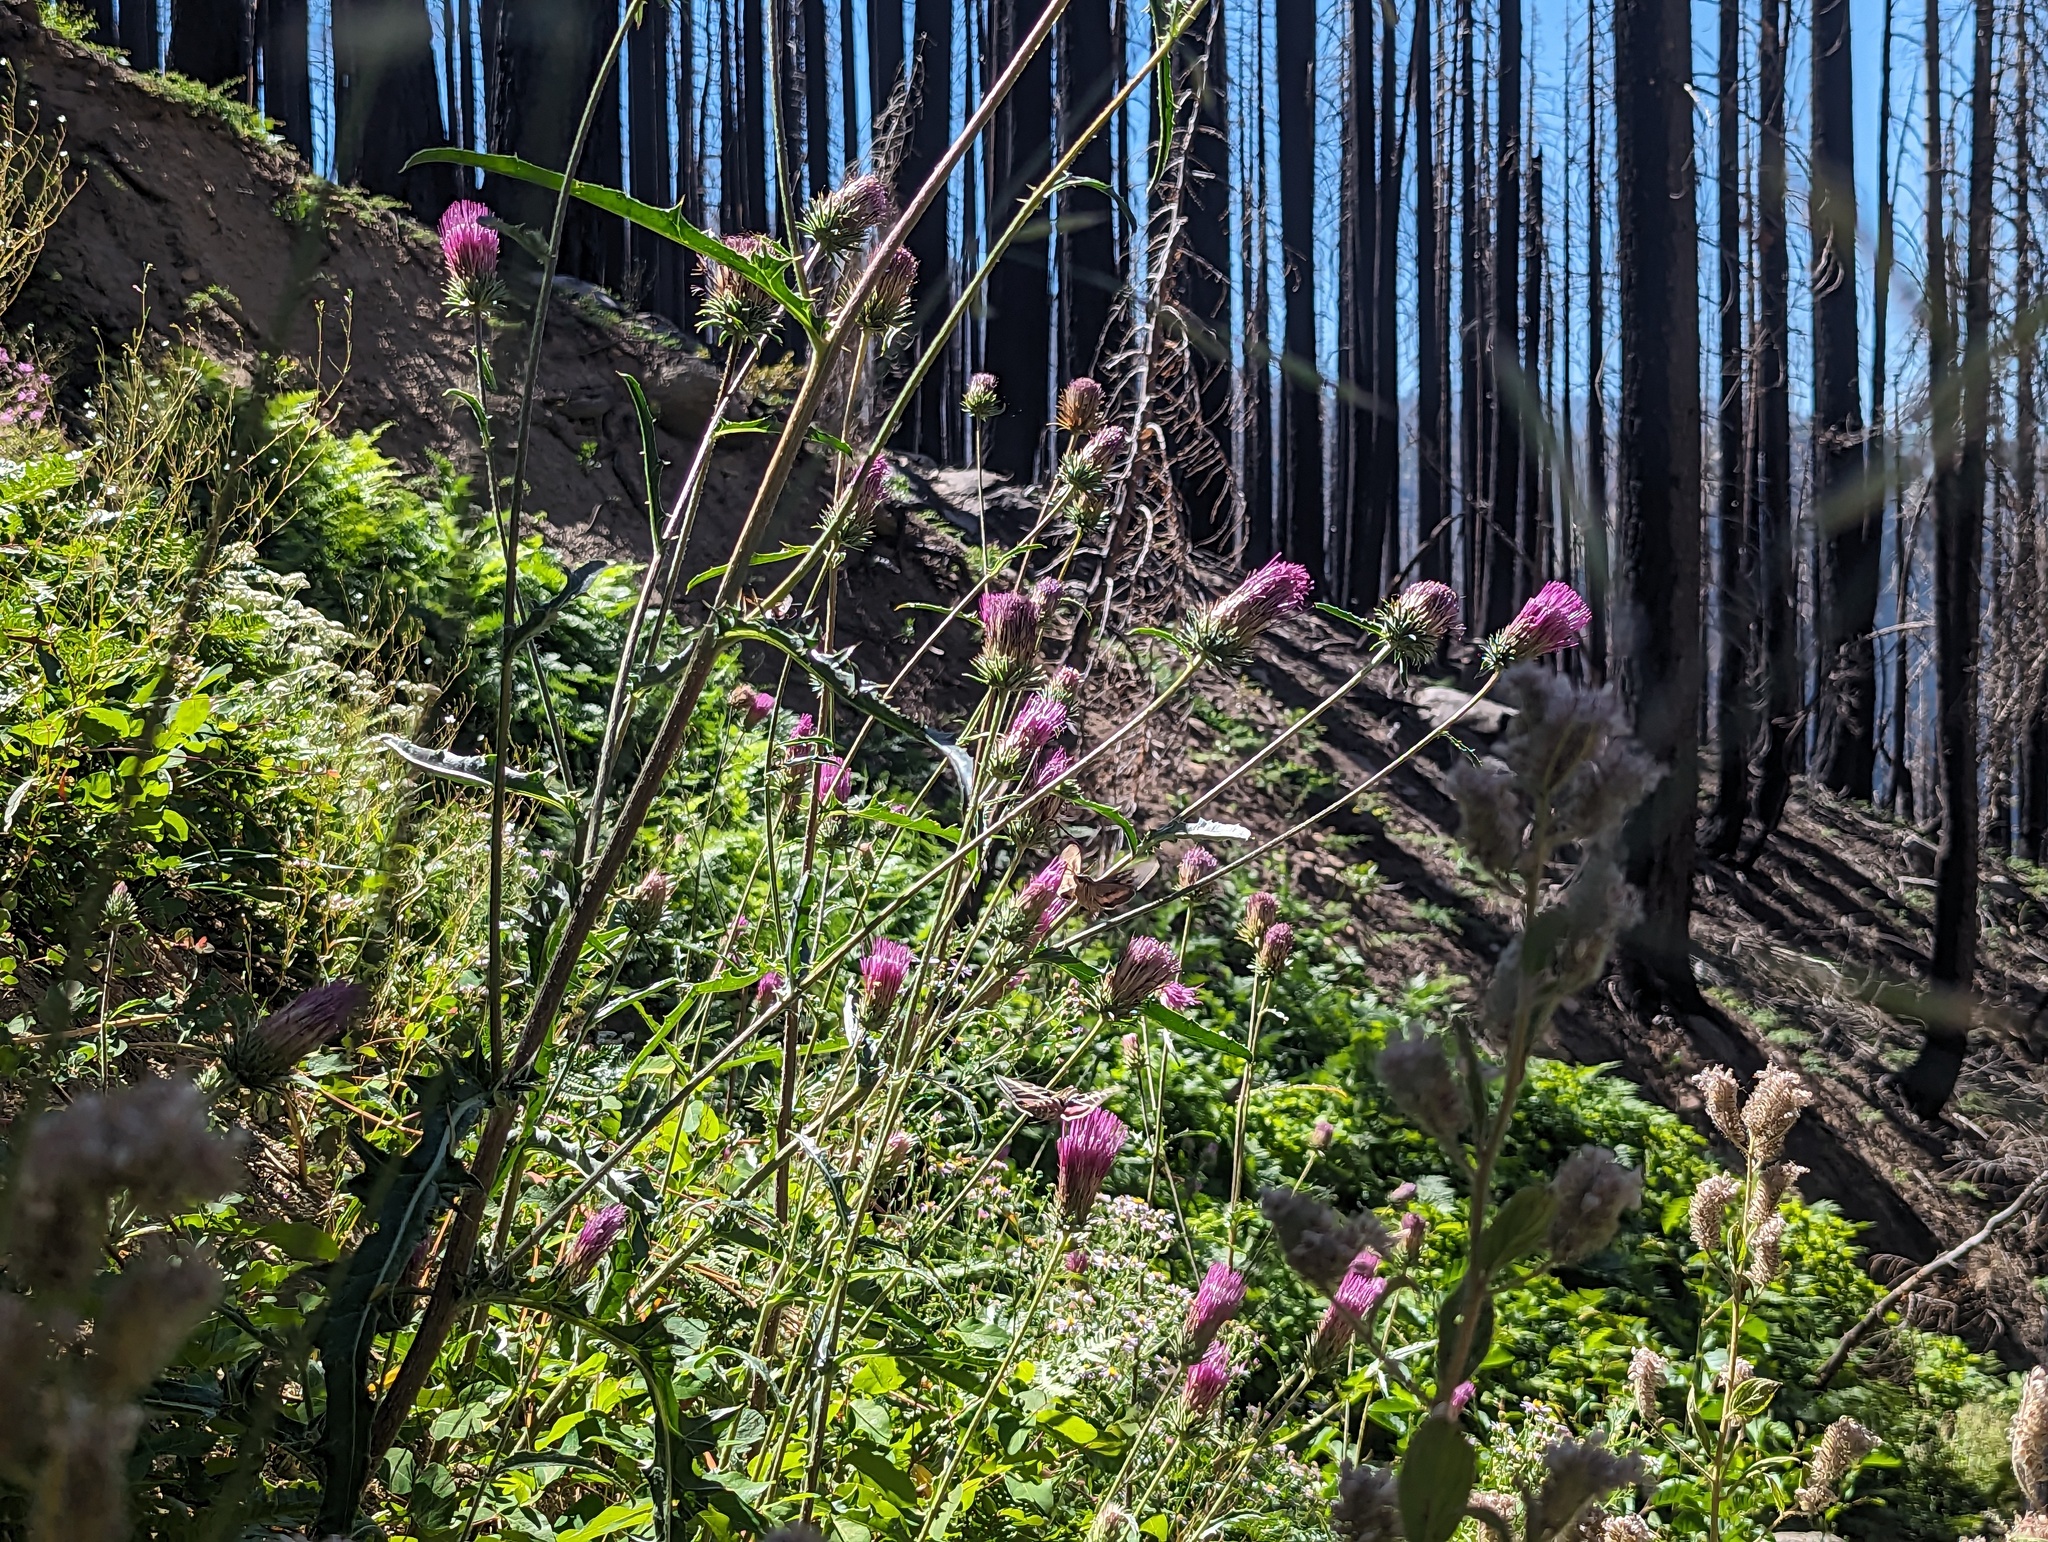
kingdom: Plantae
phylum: Tracheophyta
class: Magnoliopsida
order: Asterales
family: Asteraceae
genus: Cirsium
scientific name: Cirsium andersonii
